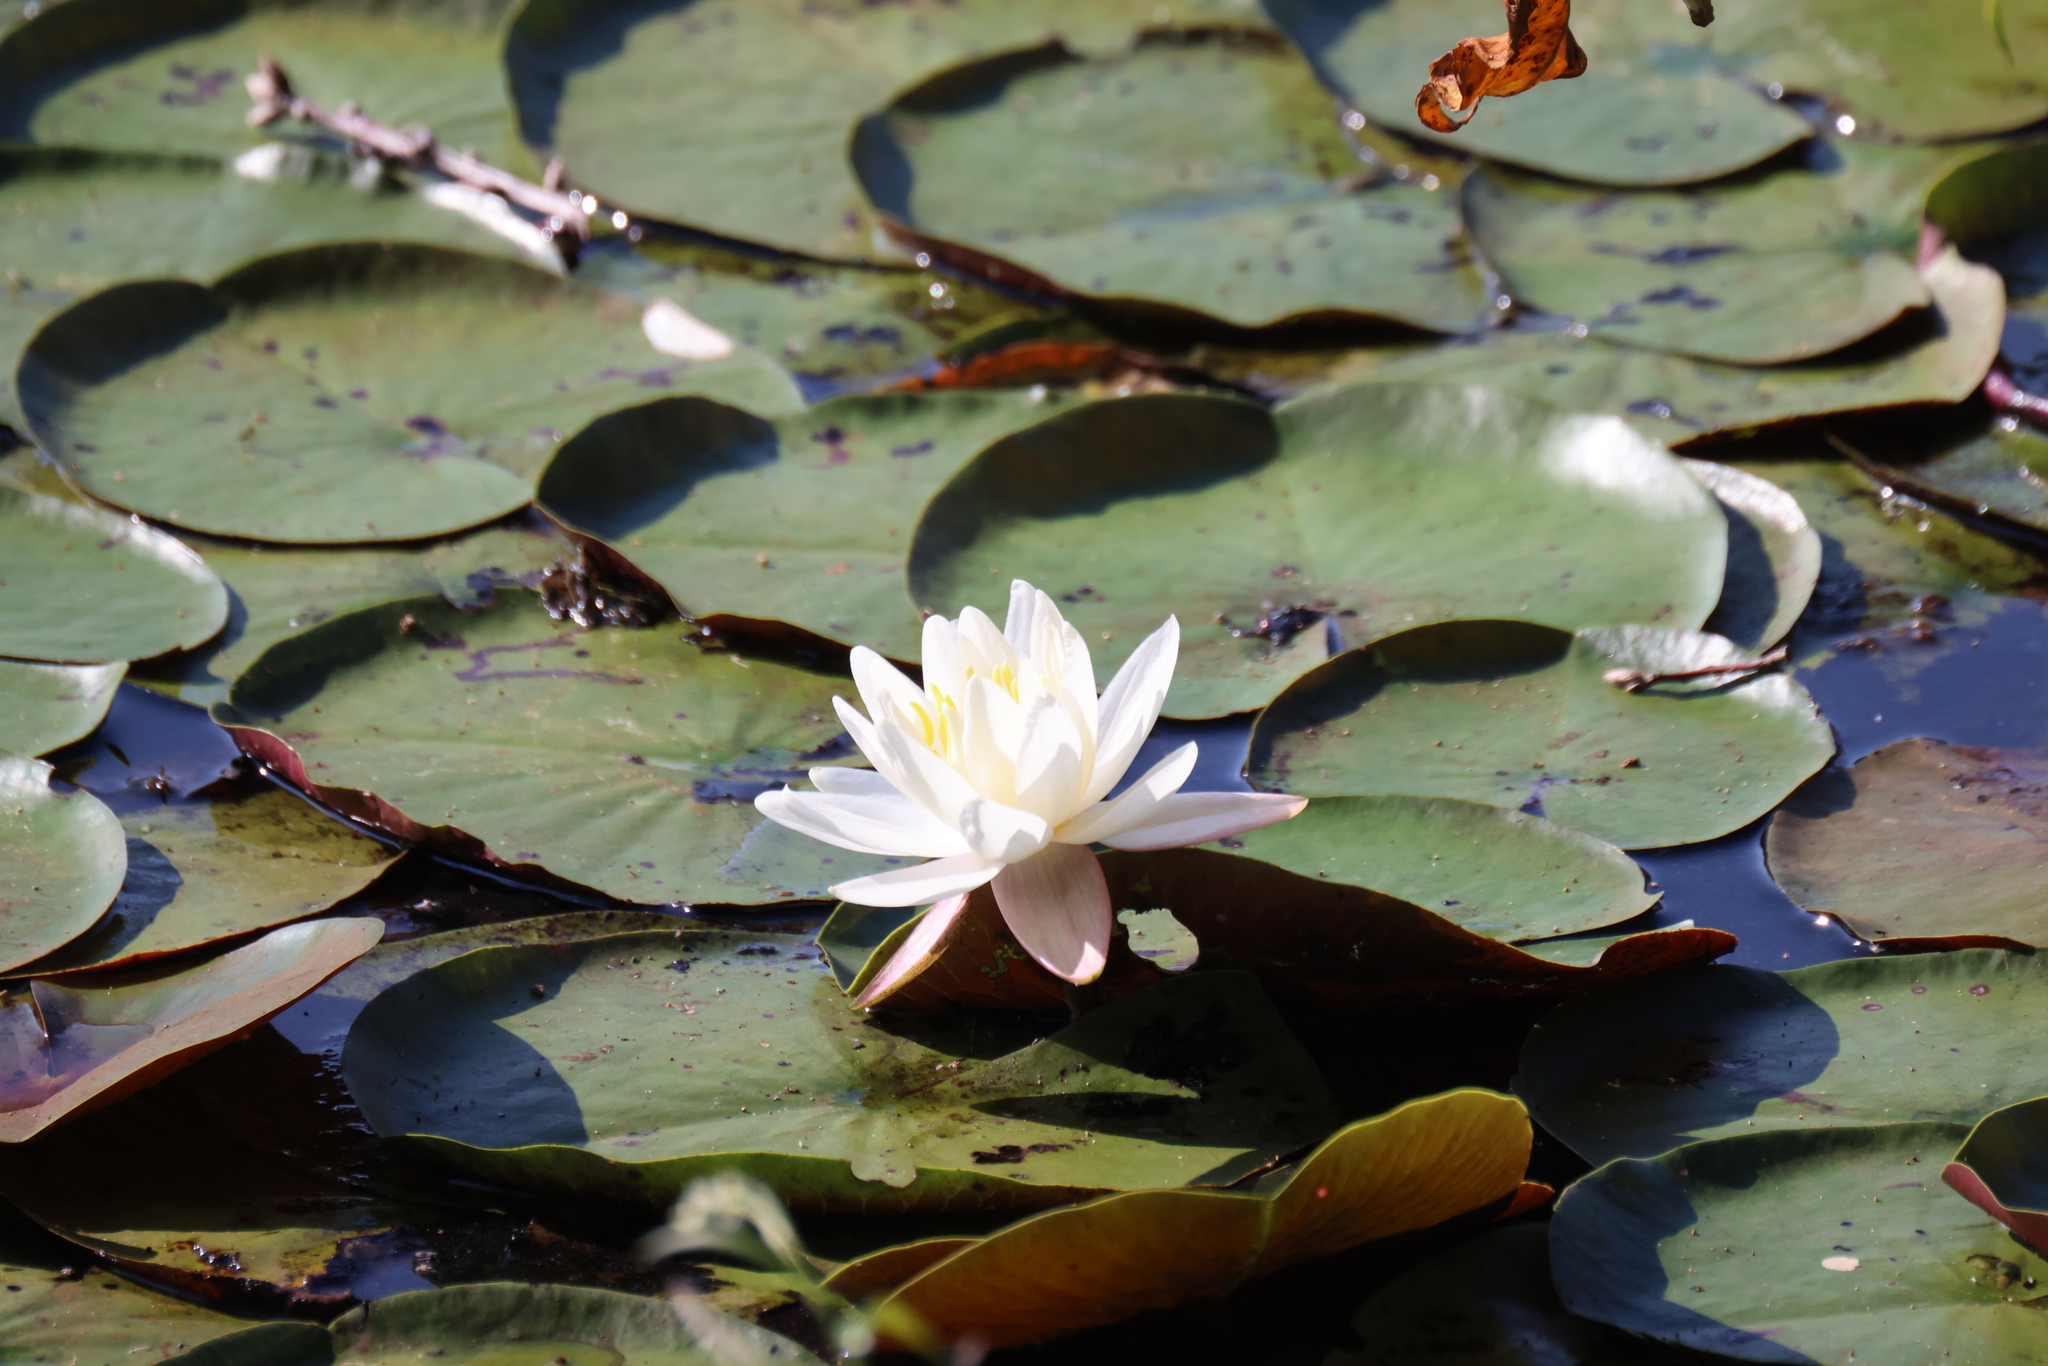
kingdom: Plantae
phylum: Tracheophyta
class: Magnoliopsida
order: Nymphaeales
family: Nymphaeaceae
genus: Nymphaea
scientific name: Nymphaea odorata
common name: Fragrant water-lily
